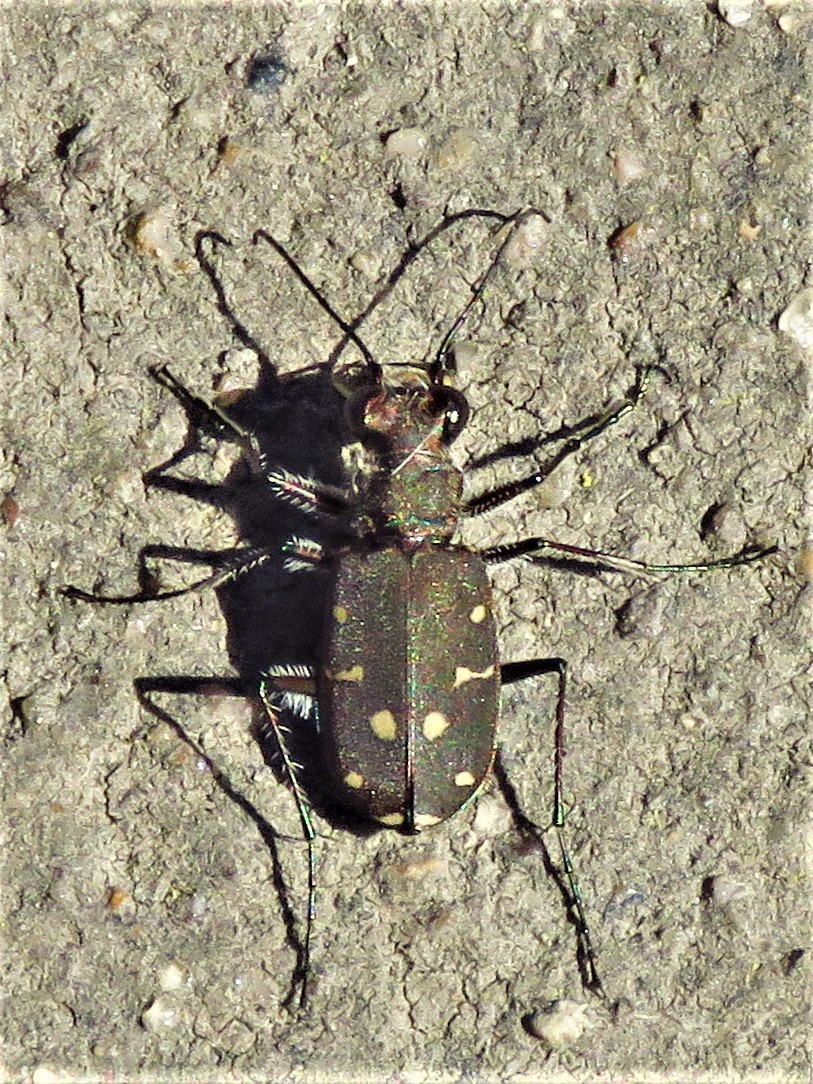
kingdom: Animalia
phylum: Arthropoda
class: Insecta
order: Coleoptera
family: Carabidae
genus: Cicindela
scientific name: Cicindela duodecimguttata
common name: Twelve-spotted tiger beetle
